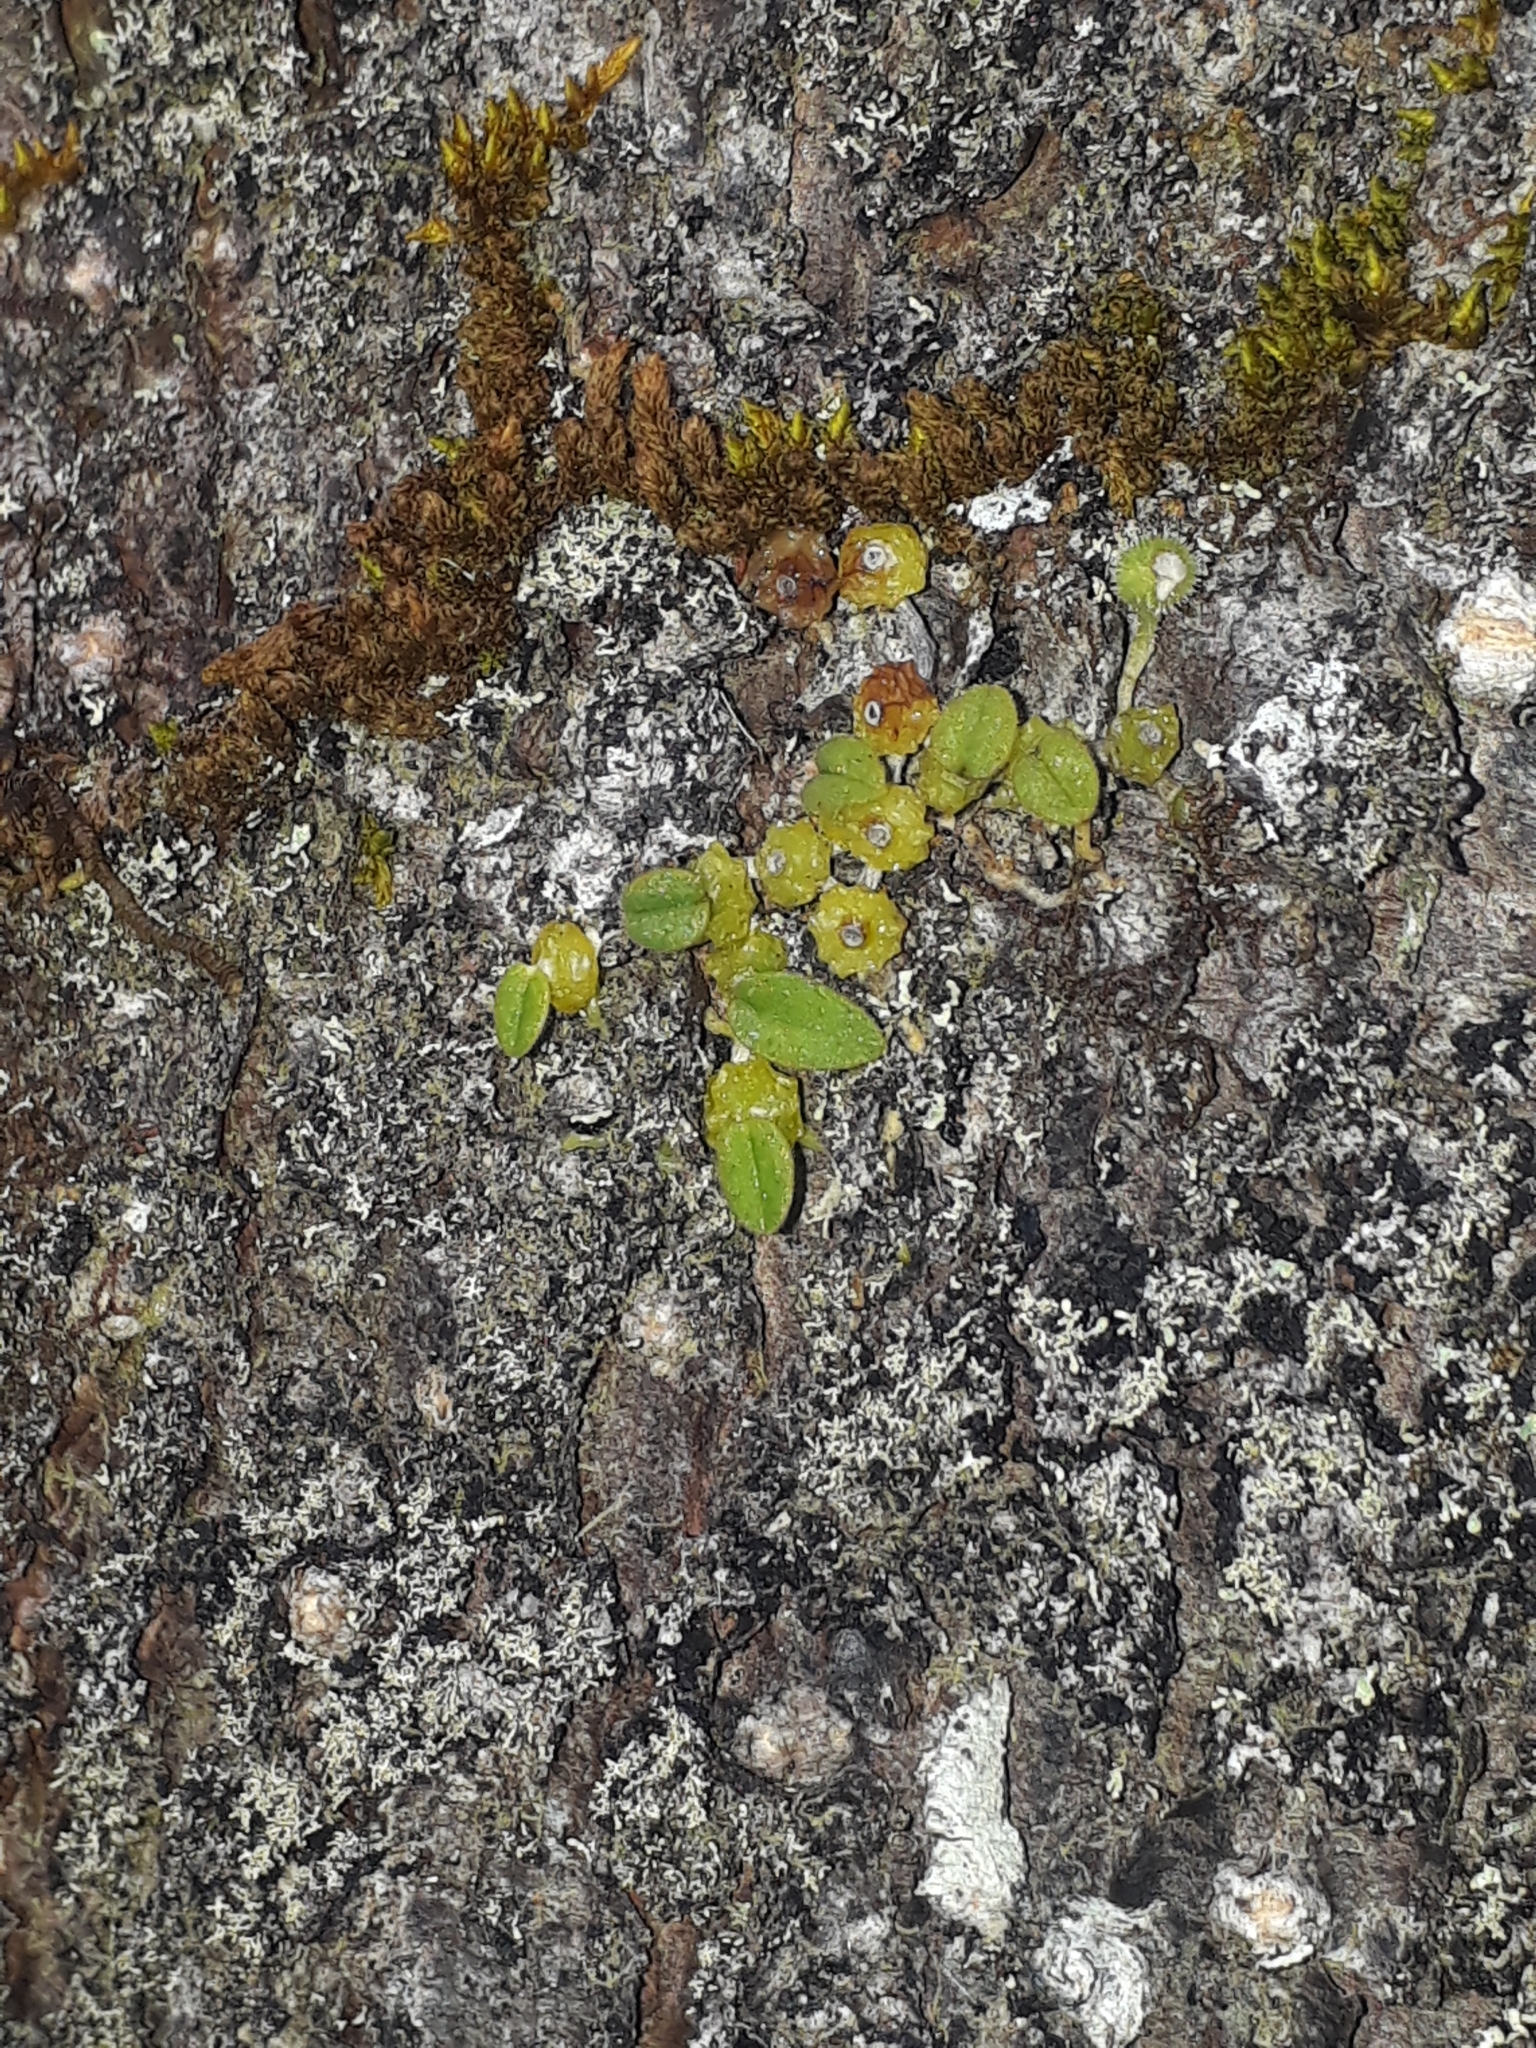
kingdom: Plantae
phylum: Tracheophyta
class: Liliopsida
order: Asparagales
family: Orchidaceae
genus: Bulbophyllum
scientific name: Bulbophyllum pygmaeum
